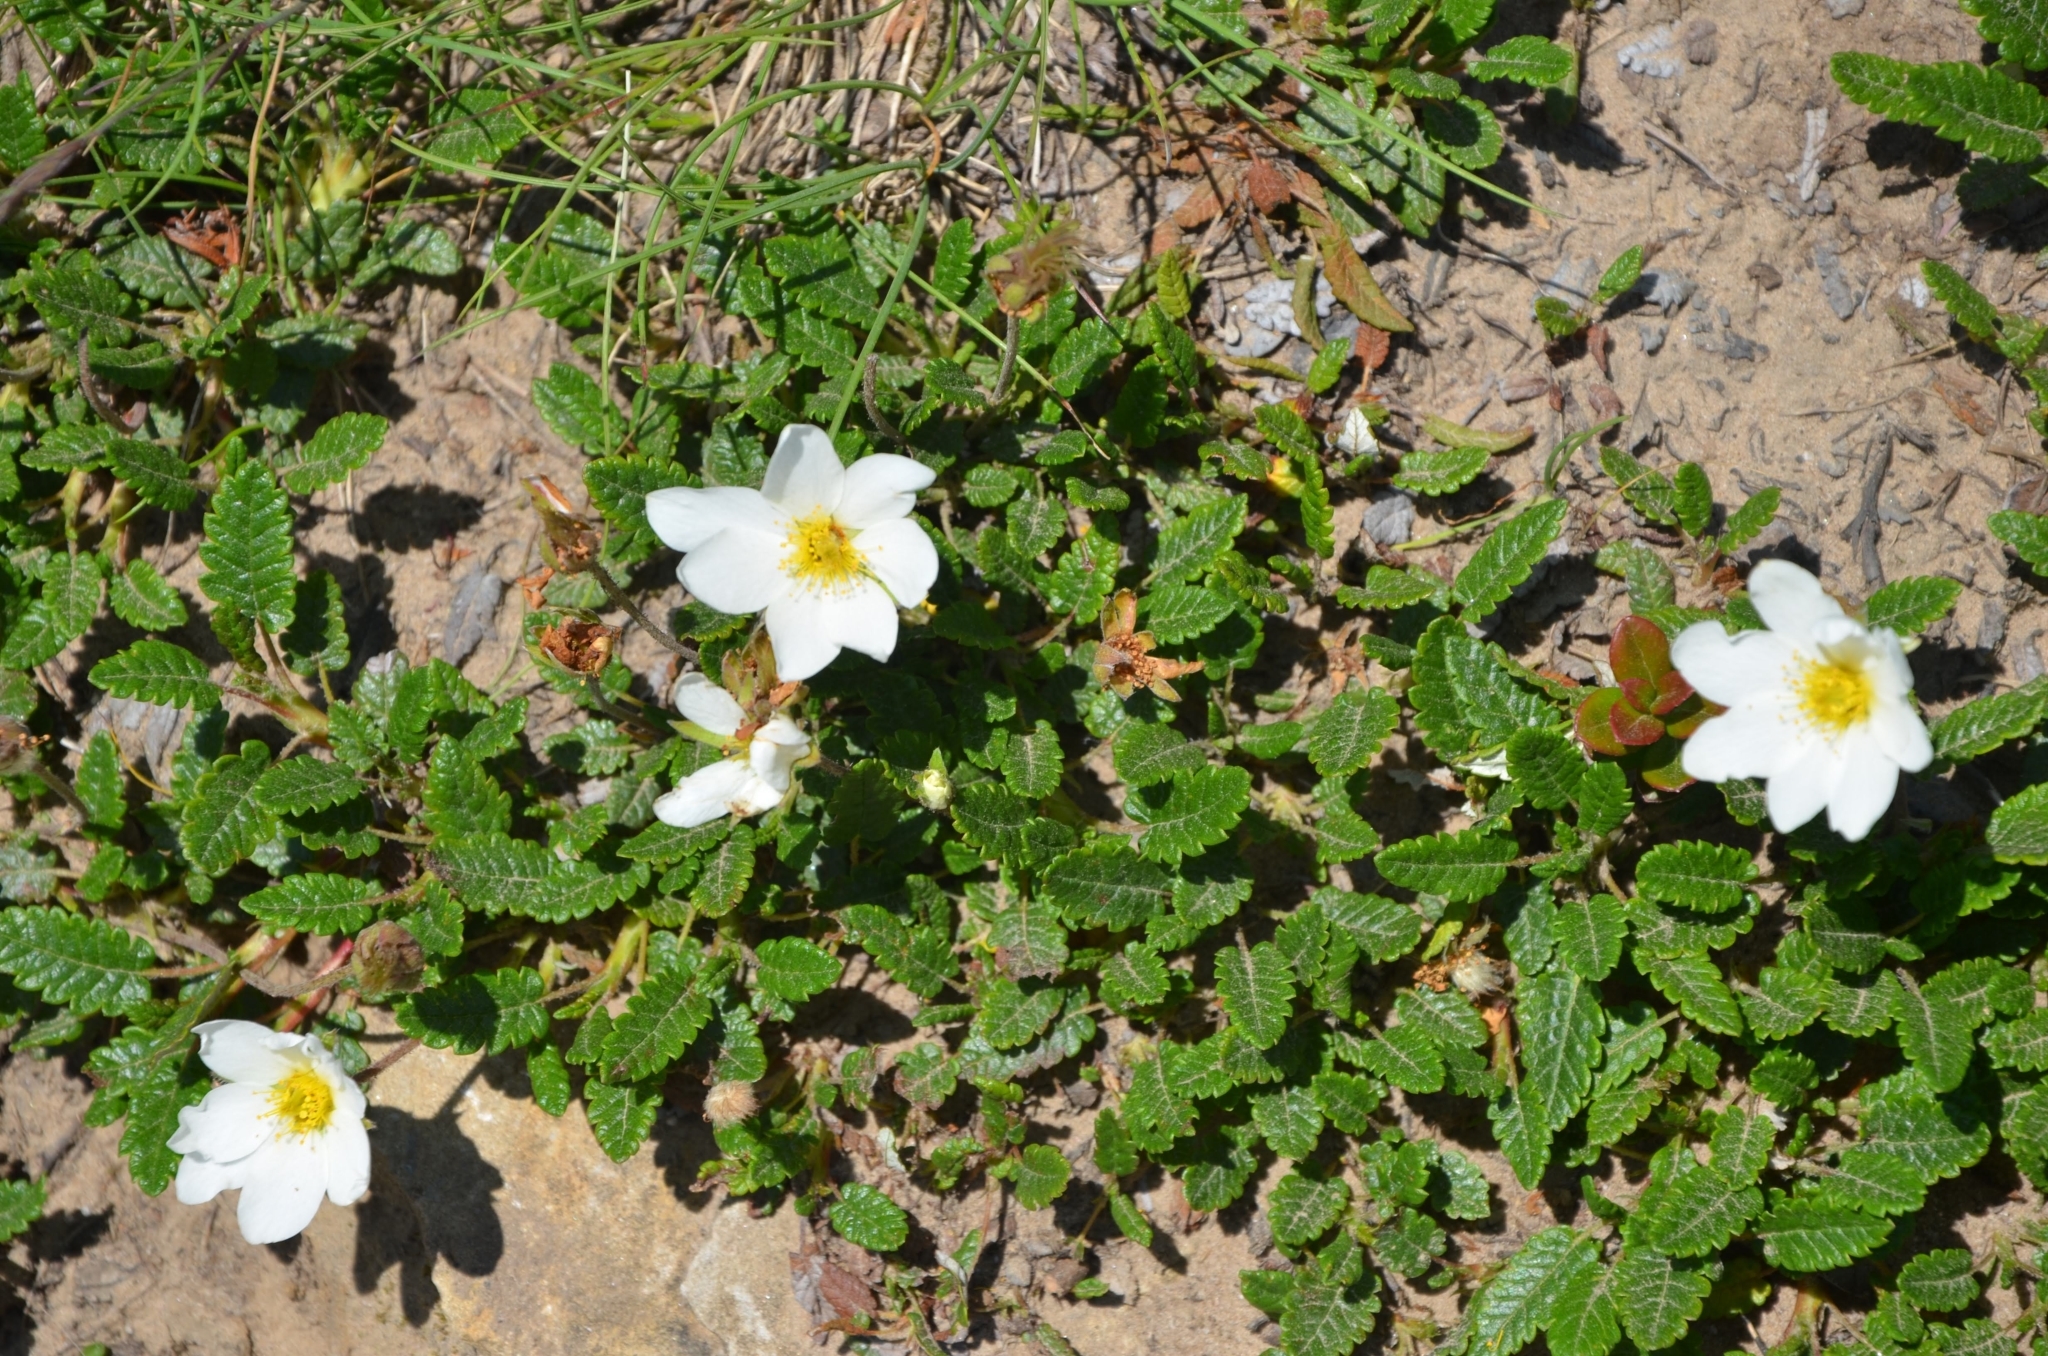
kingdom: Plantae
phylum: Tracheophyta
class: Magnoliopsida
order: Rosales
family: Rosaceae
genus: Dryas
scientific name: Dryas octopetala
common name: Eight-petal mountain-avens
